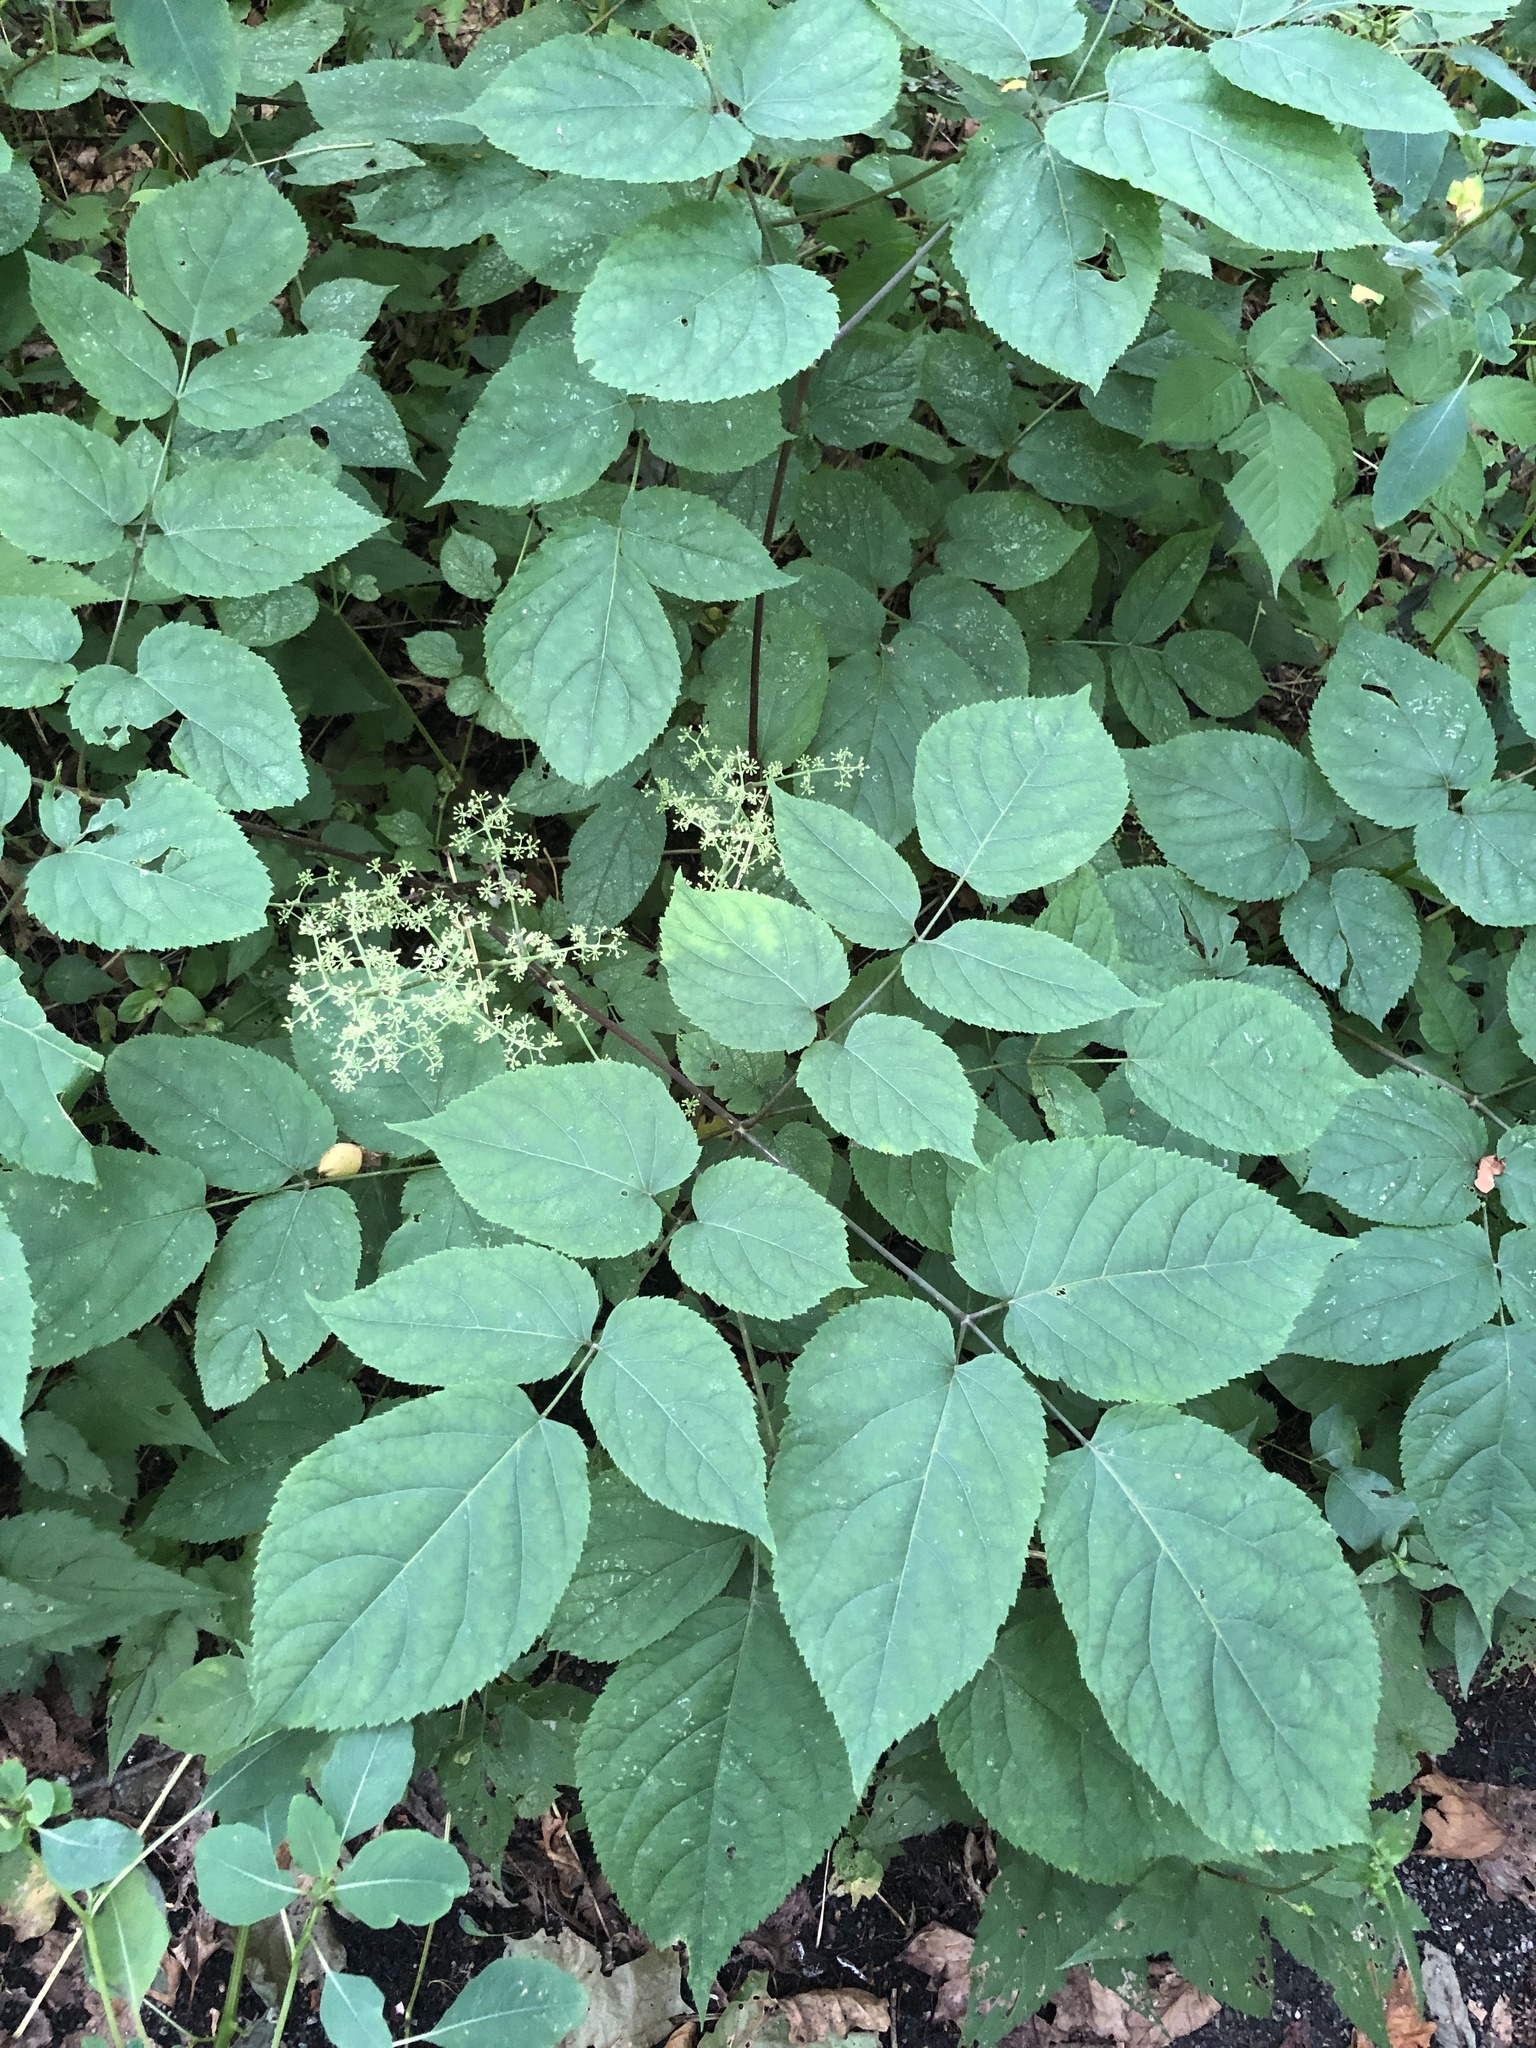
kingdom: Plantae
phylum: Tracheophyta
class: Magnoliopsida
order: Apiales
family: Araliaceae
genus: Aralia
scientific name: Aralia racemosa
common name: American-spikenard
